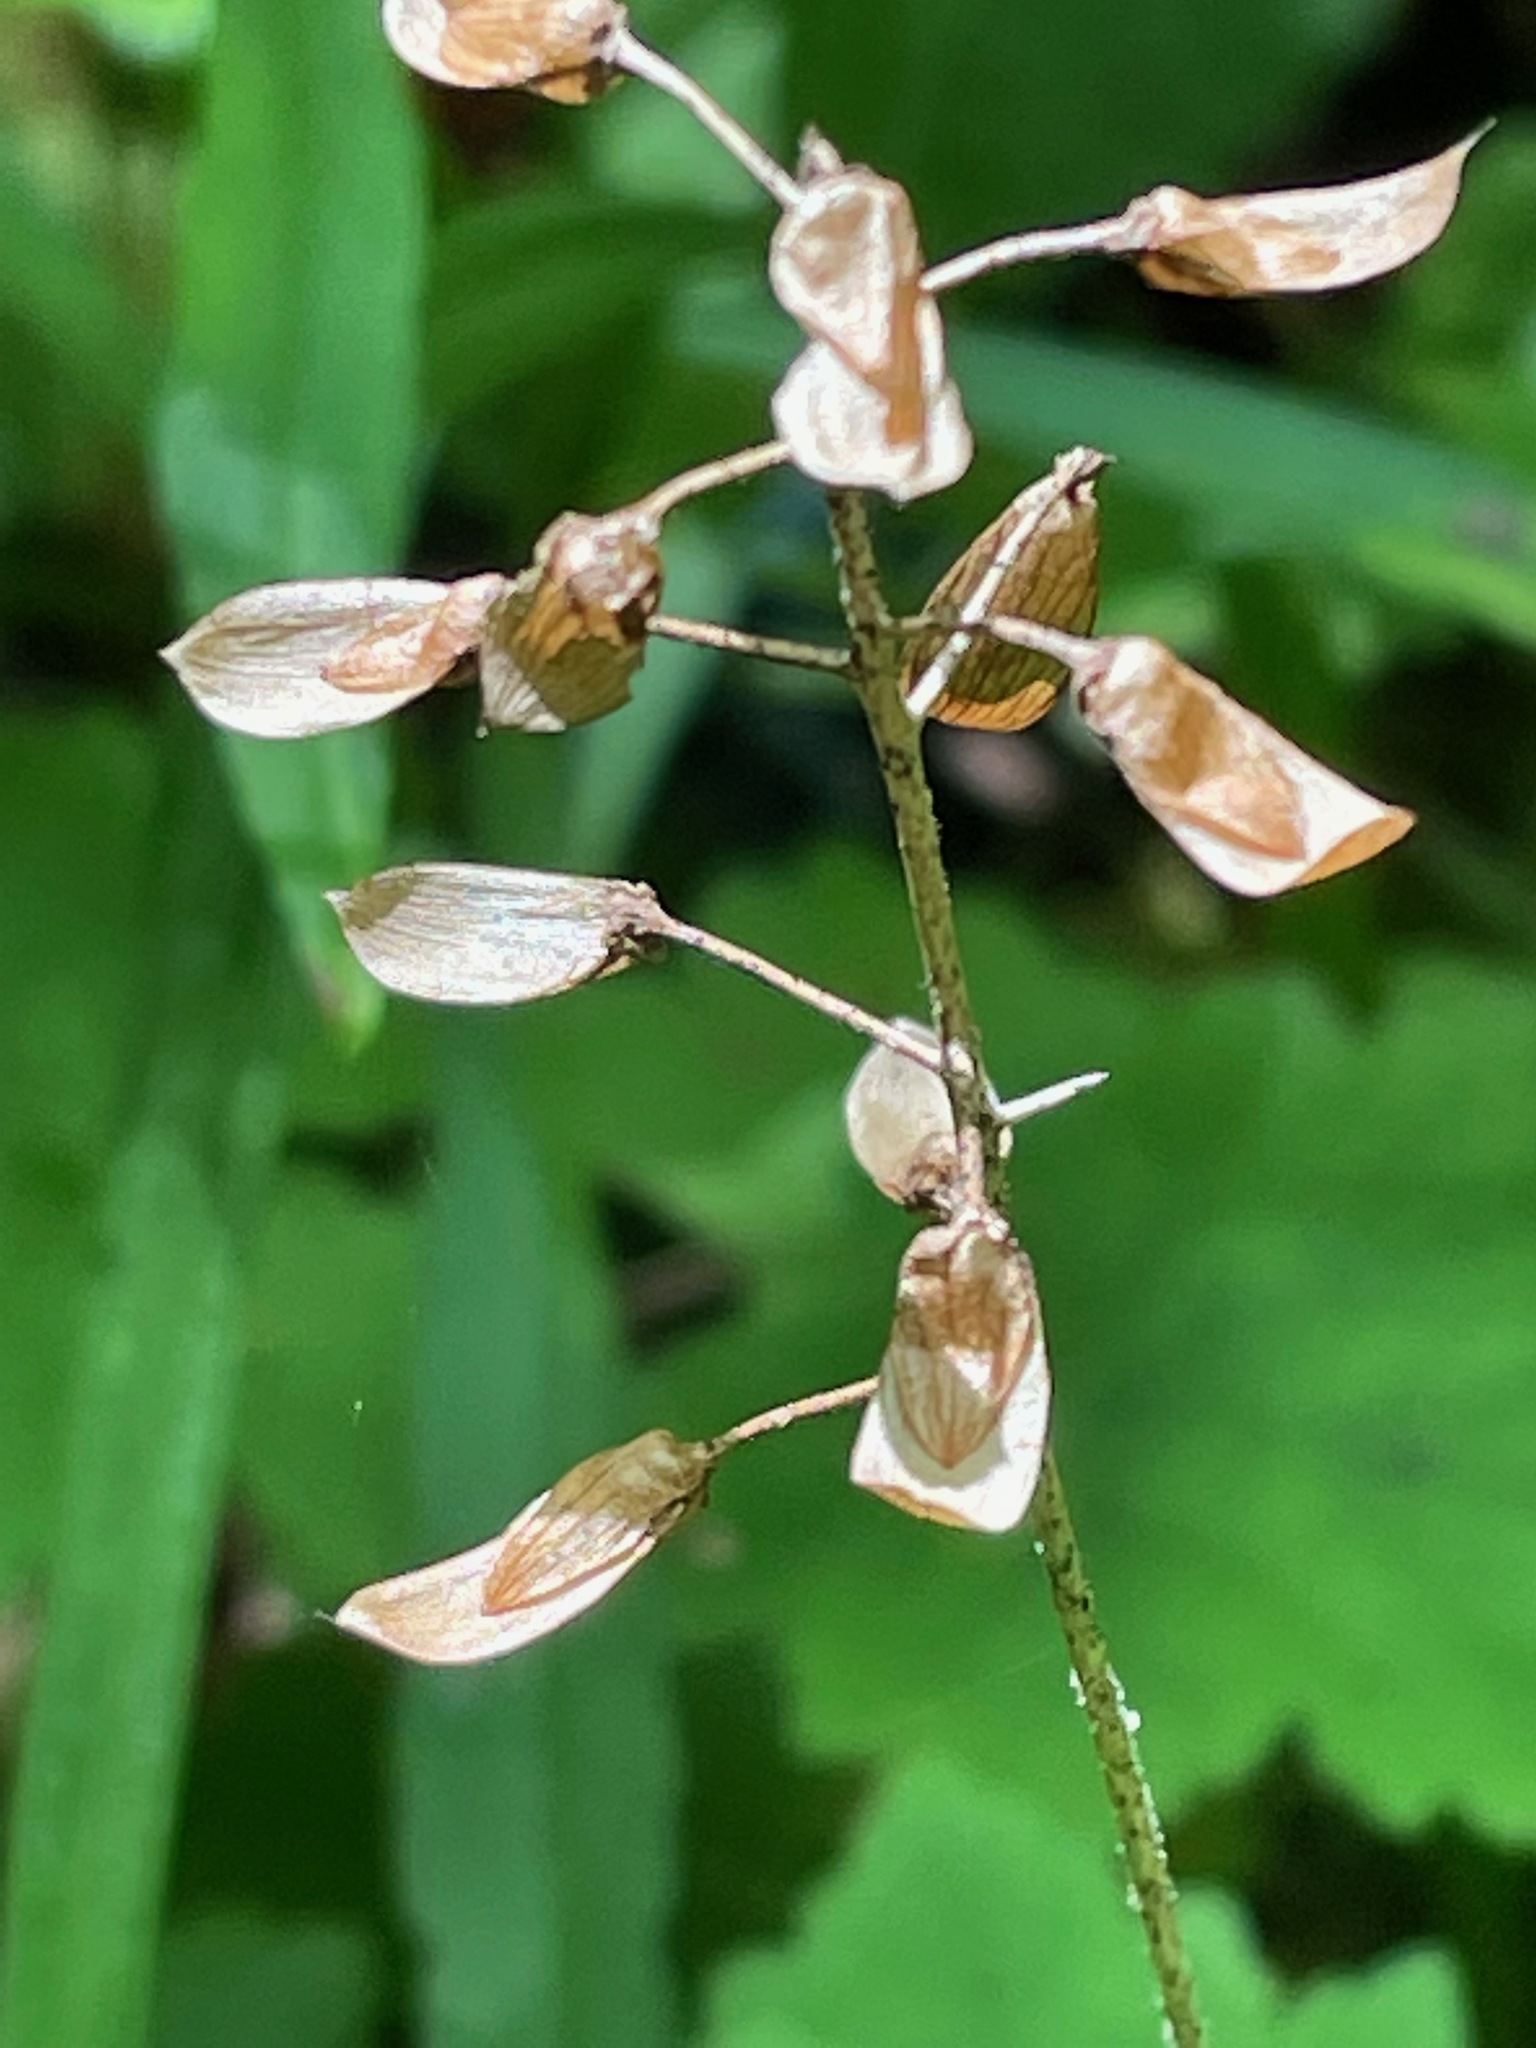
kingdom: Plantae
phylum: Tracheophyta
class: Magnoliopsida
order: Saxifragales
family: Saxifragaceae
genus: Tiarella
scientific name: Tiarella stolonifera
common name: Stoloniferous foamflower
